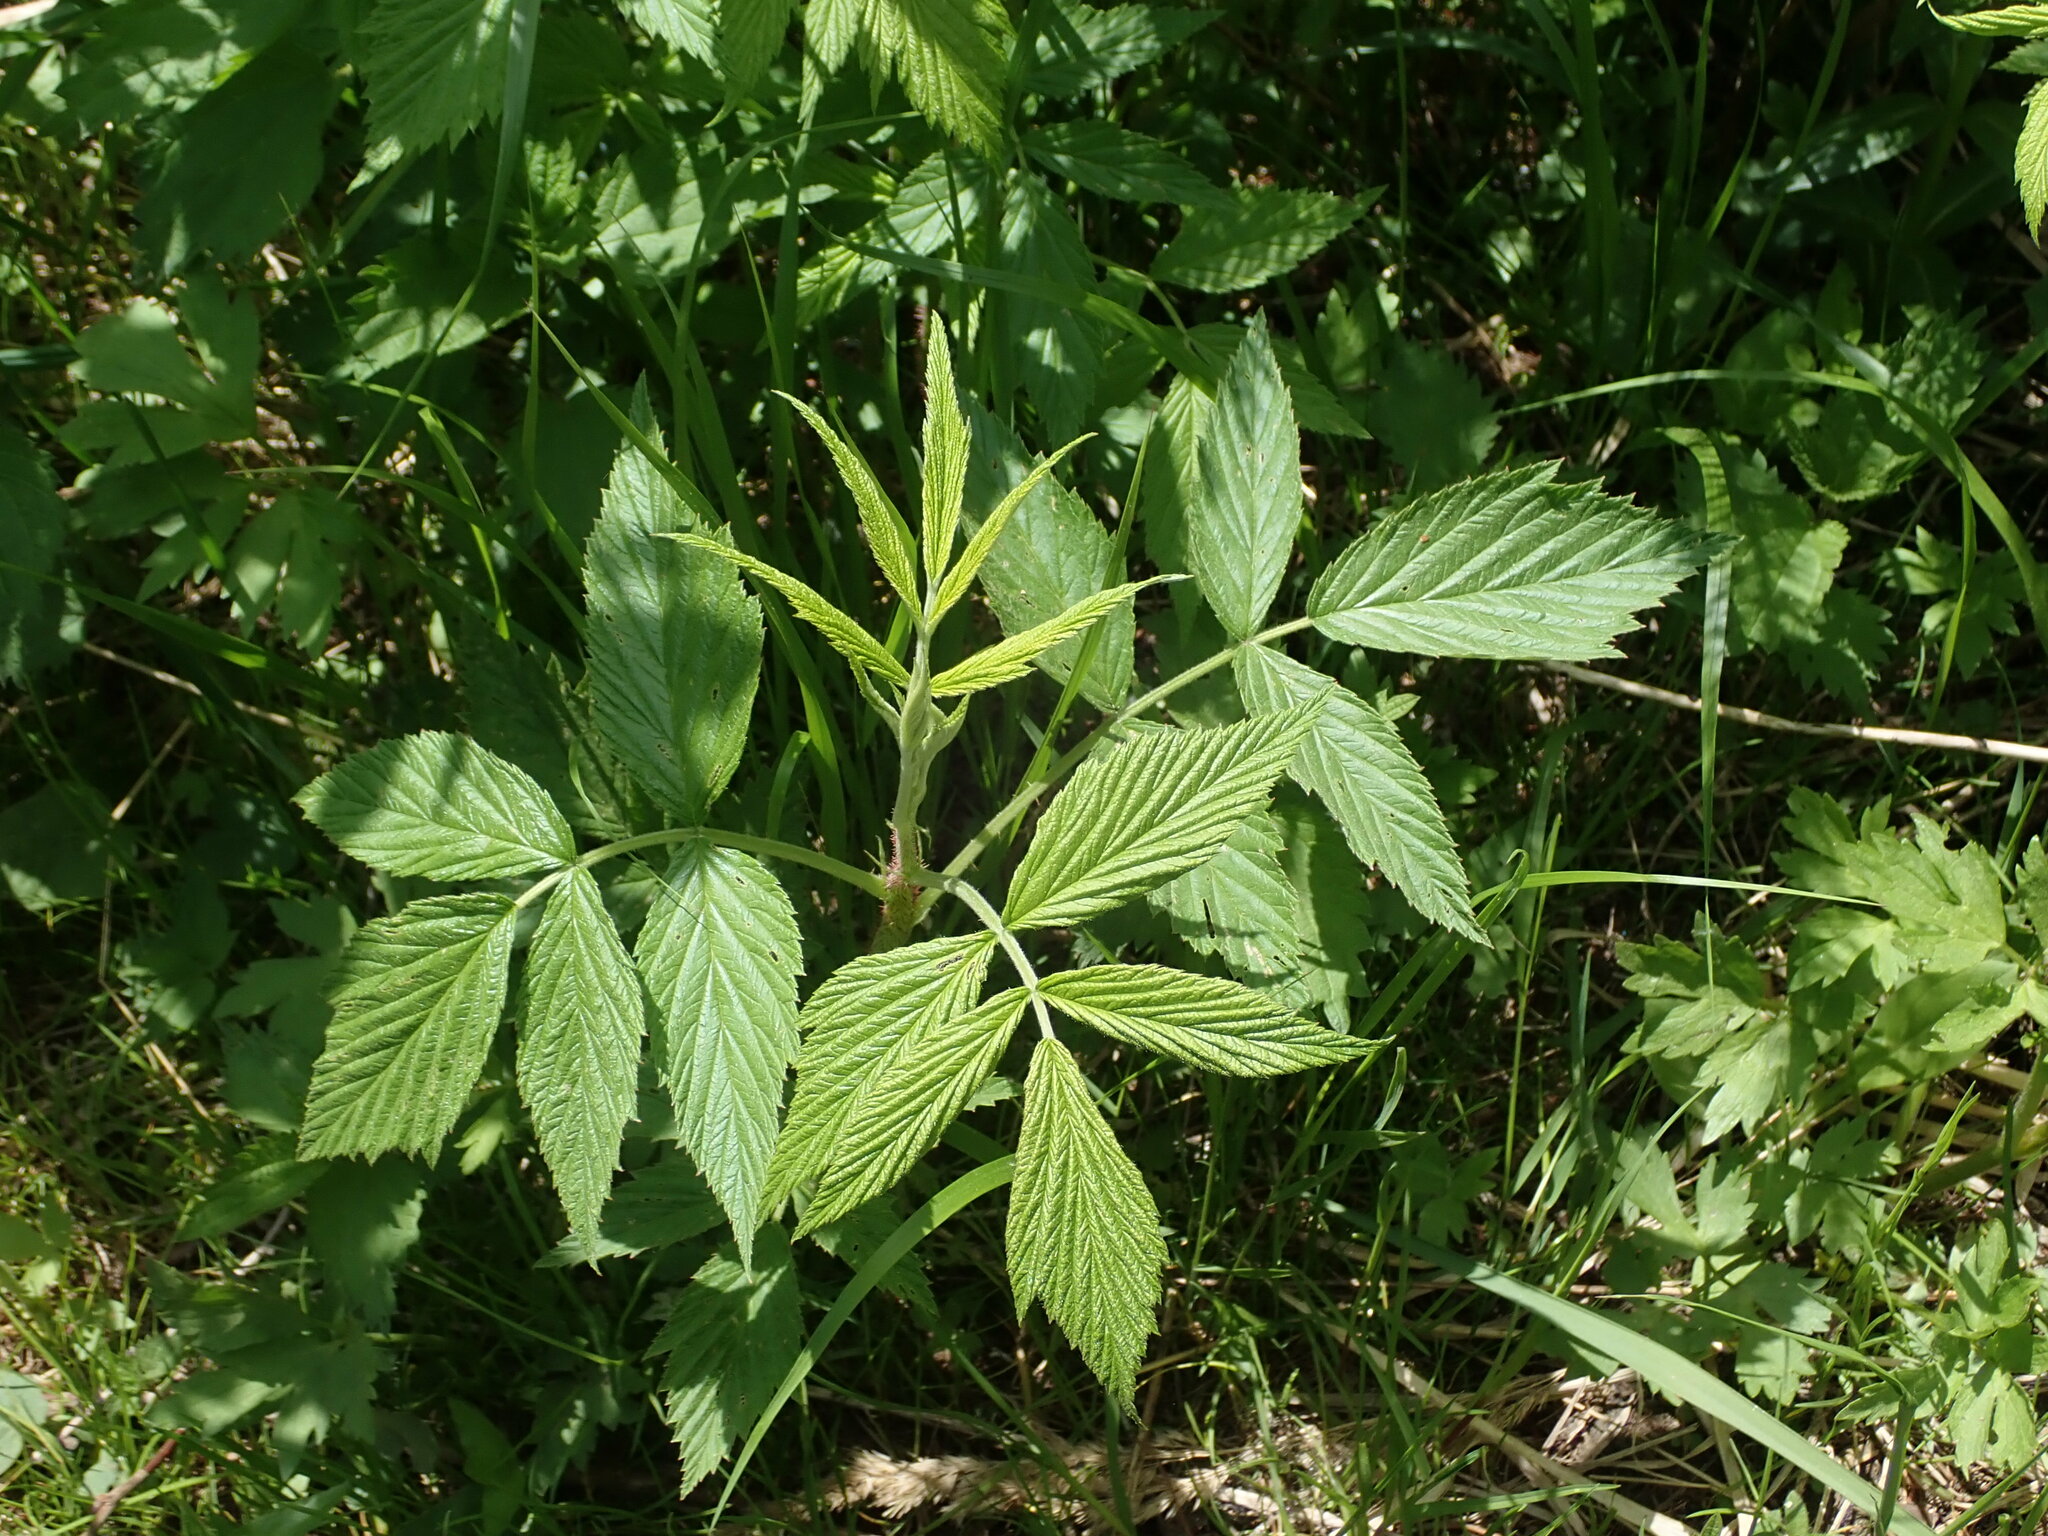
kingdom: Plantae
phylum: Tracheophyta
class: Magnoliopsida
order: Rosales
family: Rosaceae
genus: Rubus
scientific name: Rubus idaeus
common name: Raspberry
